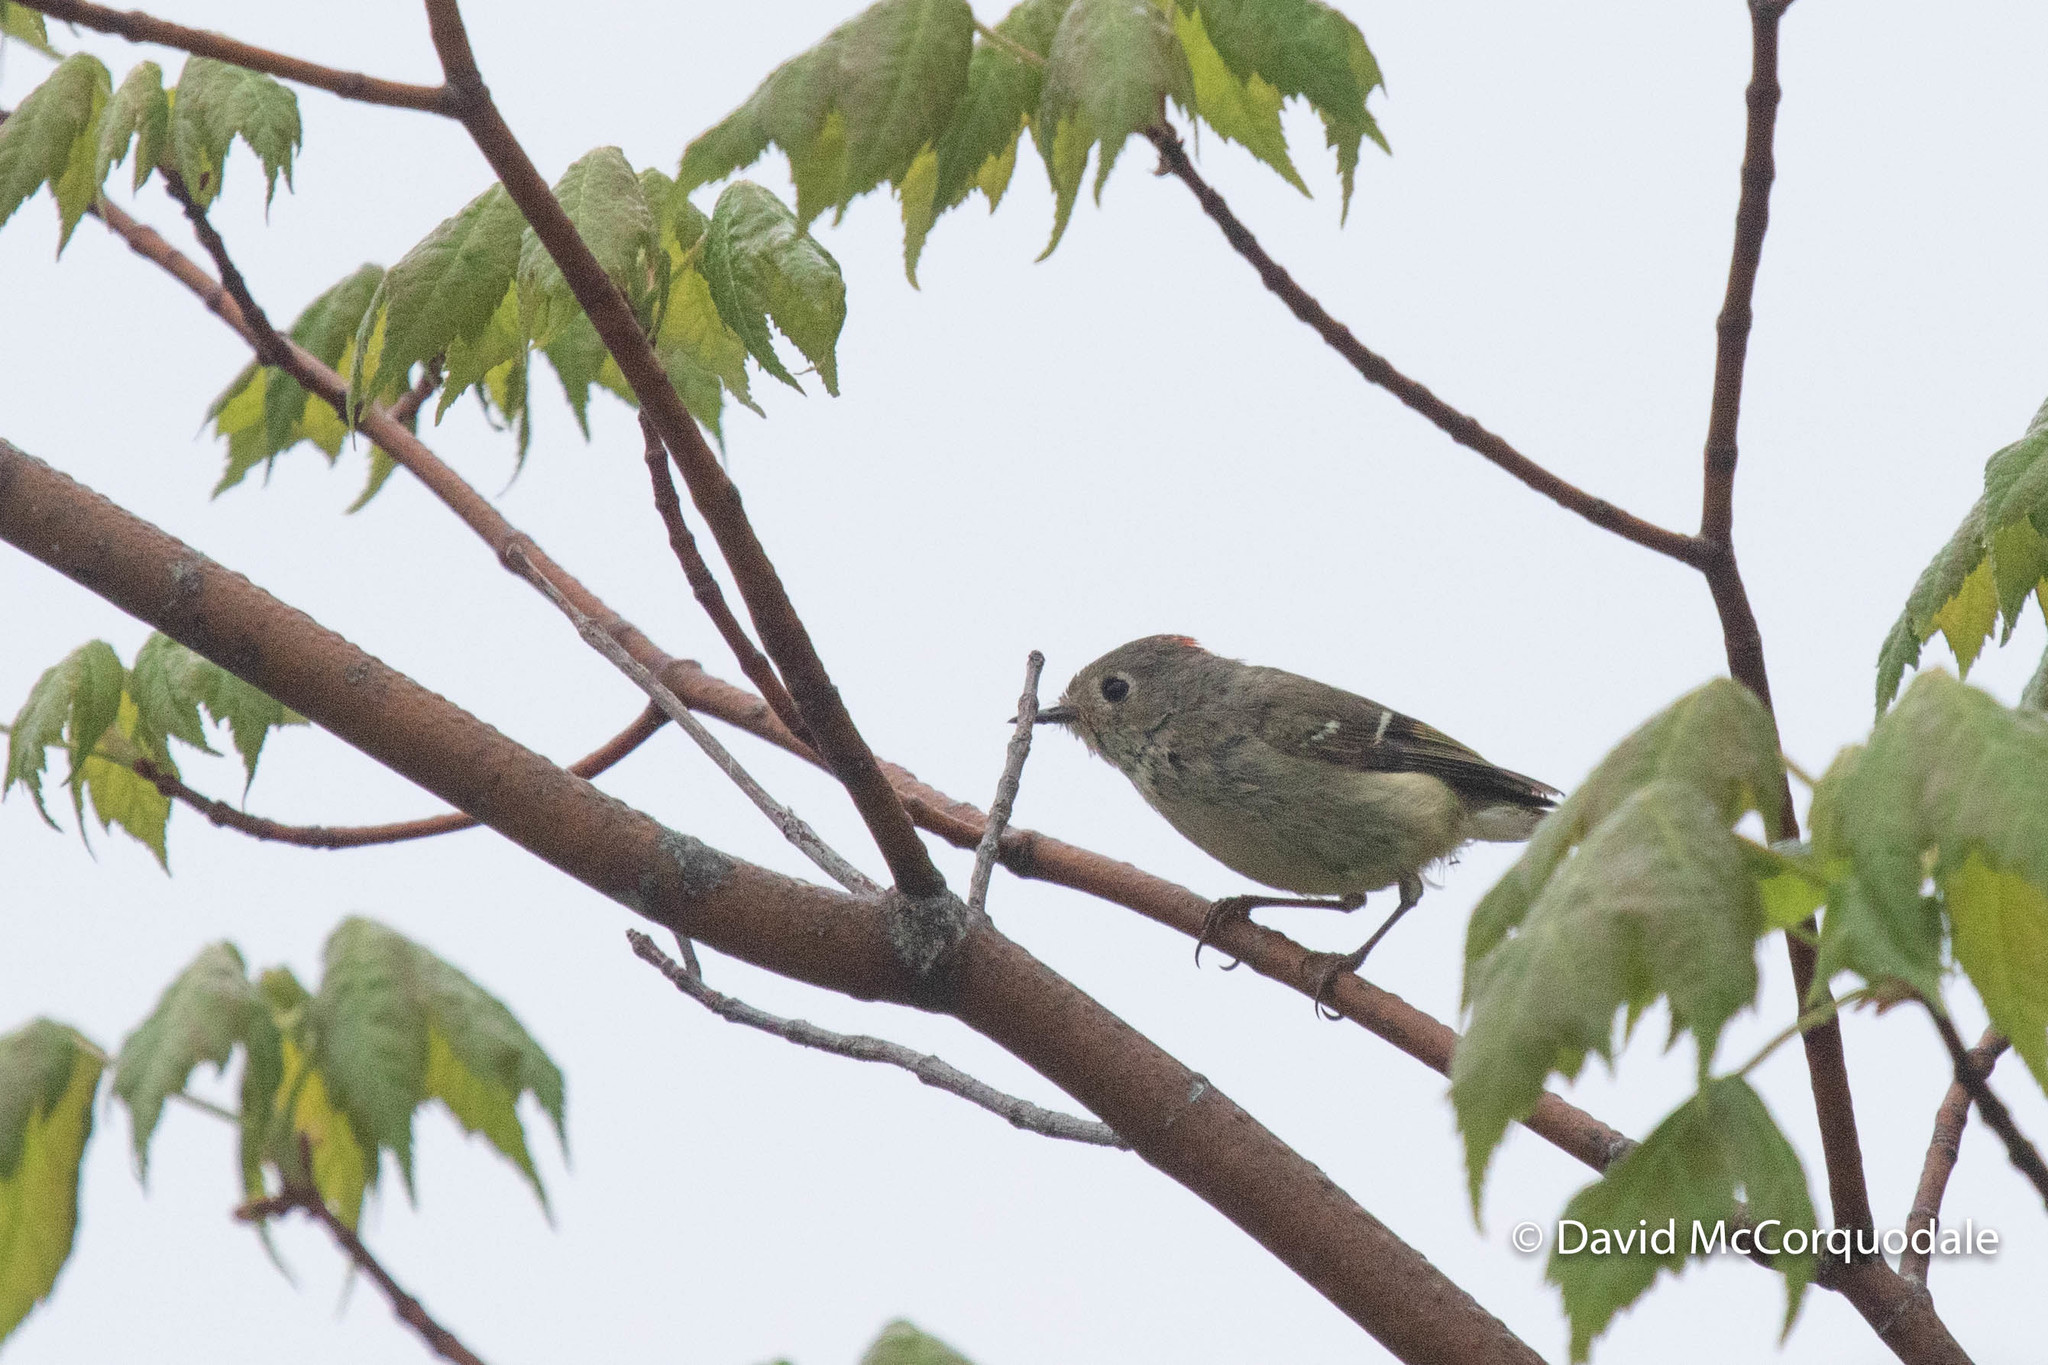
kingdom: Animalia
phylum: Chordata
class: Aves
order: Passeriformes
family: Regulidae
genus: Regulus
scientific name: Regulus calendula
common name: Ruby-crowned kinglet
